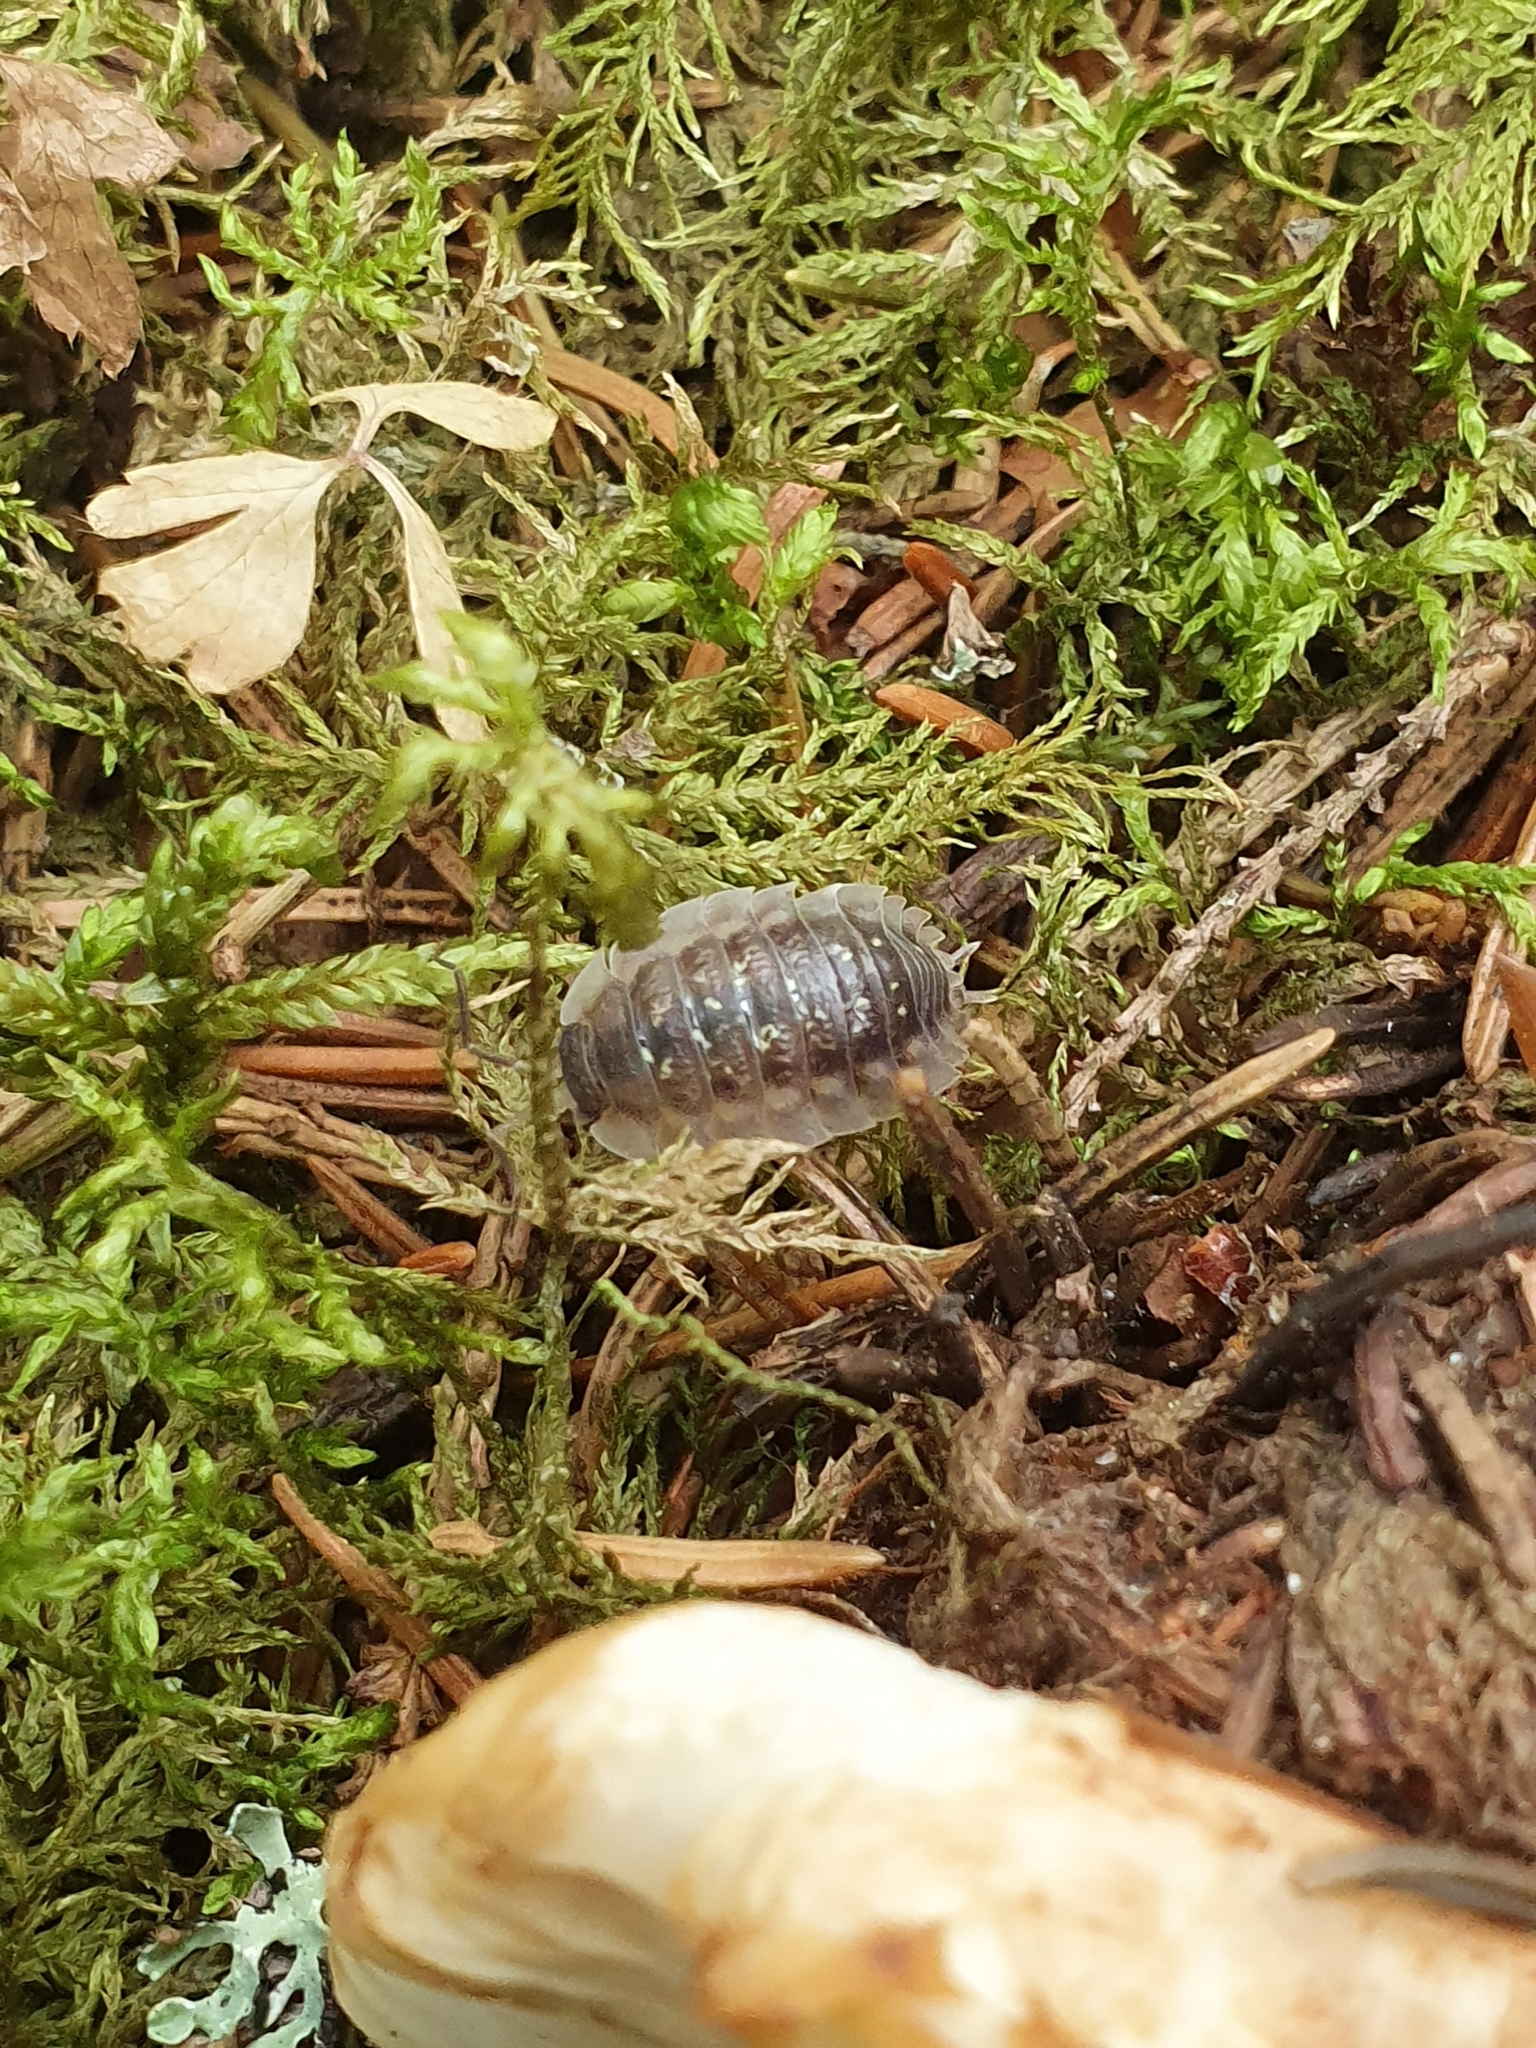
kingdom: Animalia
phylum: Arthropoda
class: Malacostraca
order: Isopoda
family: Oniscidae
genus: Oniscus
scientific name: Oniscus asellus
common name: Common shiny woodlouse
